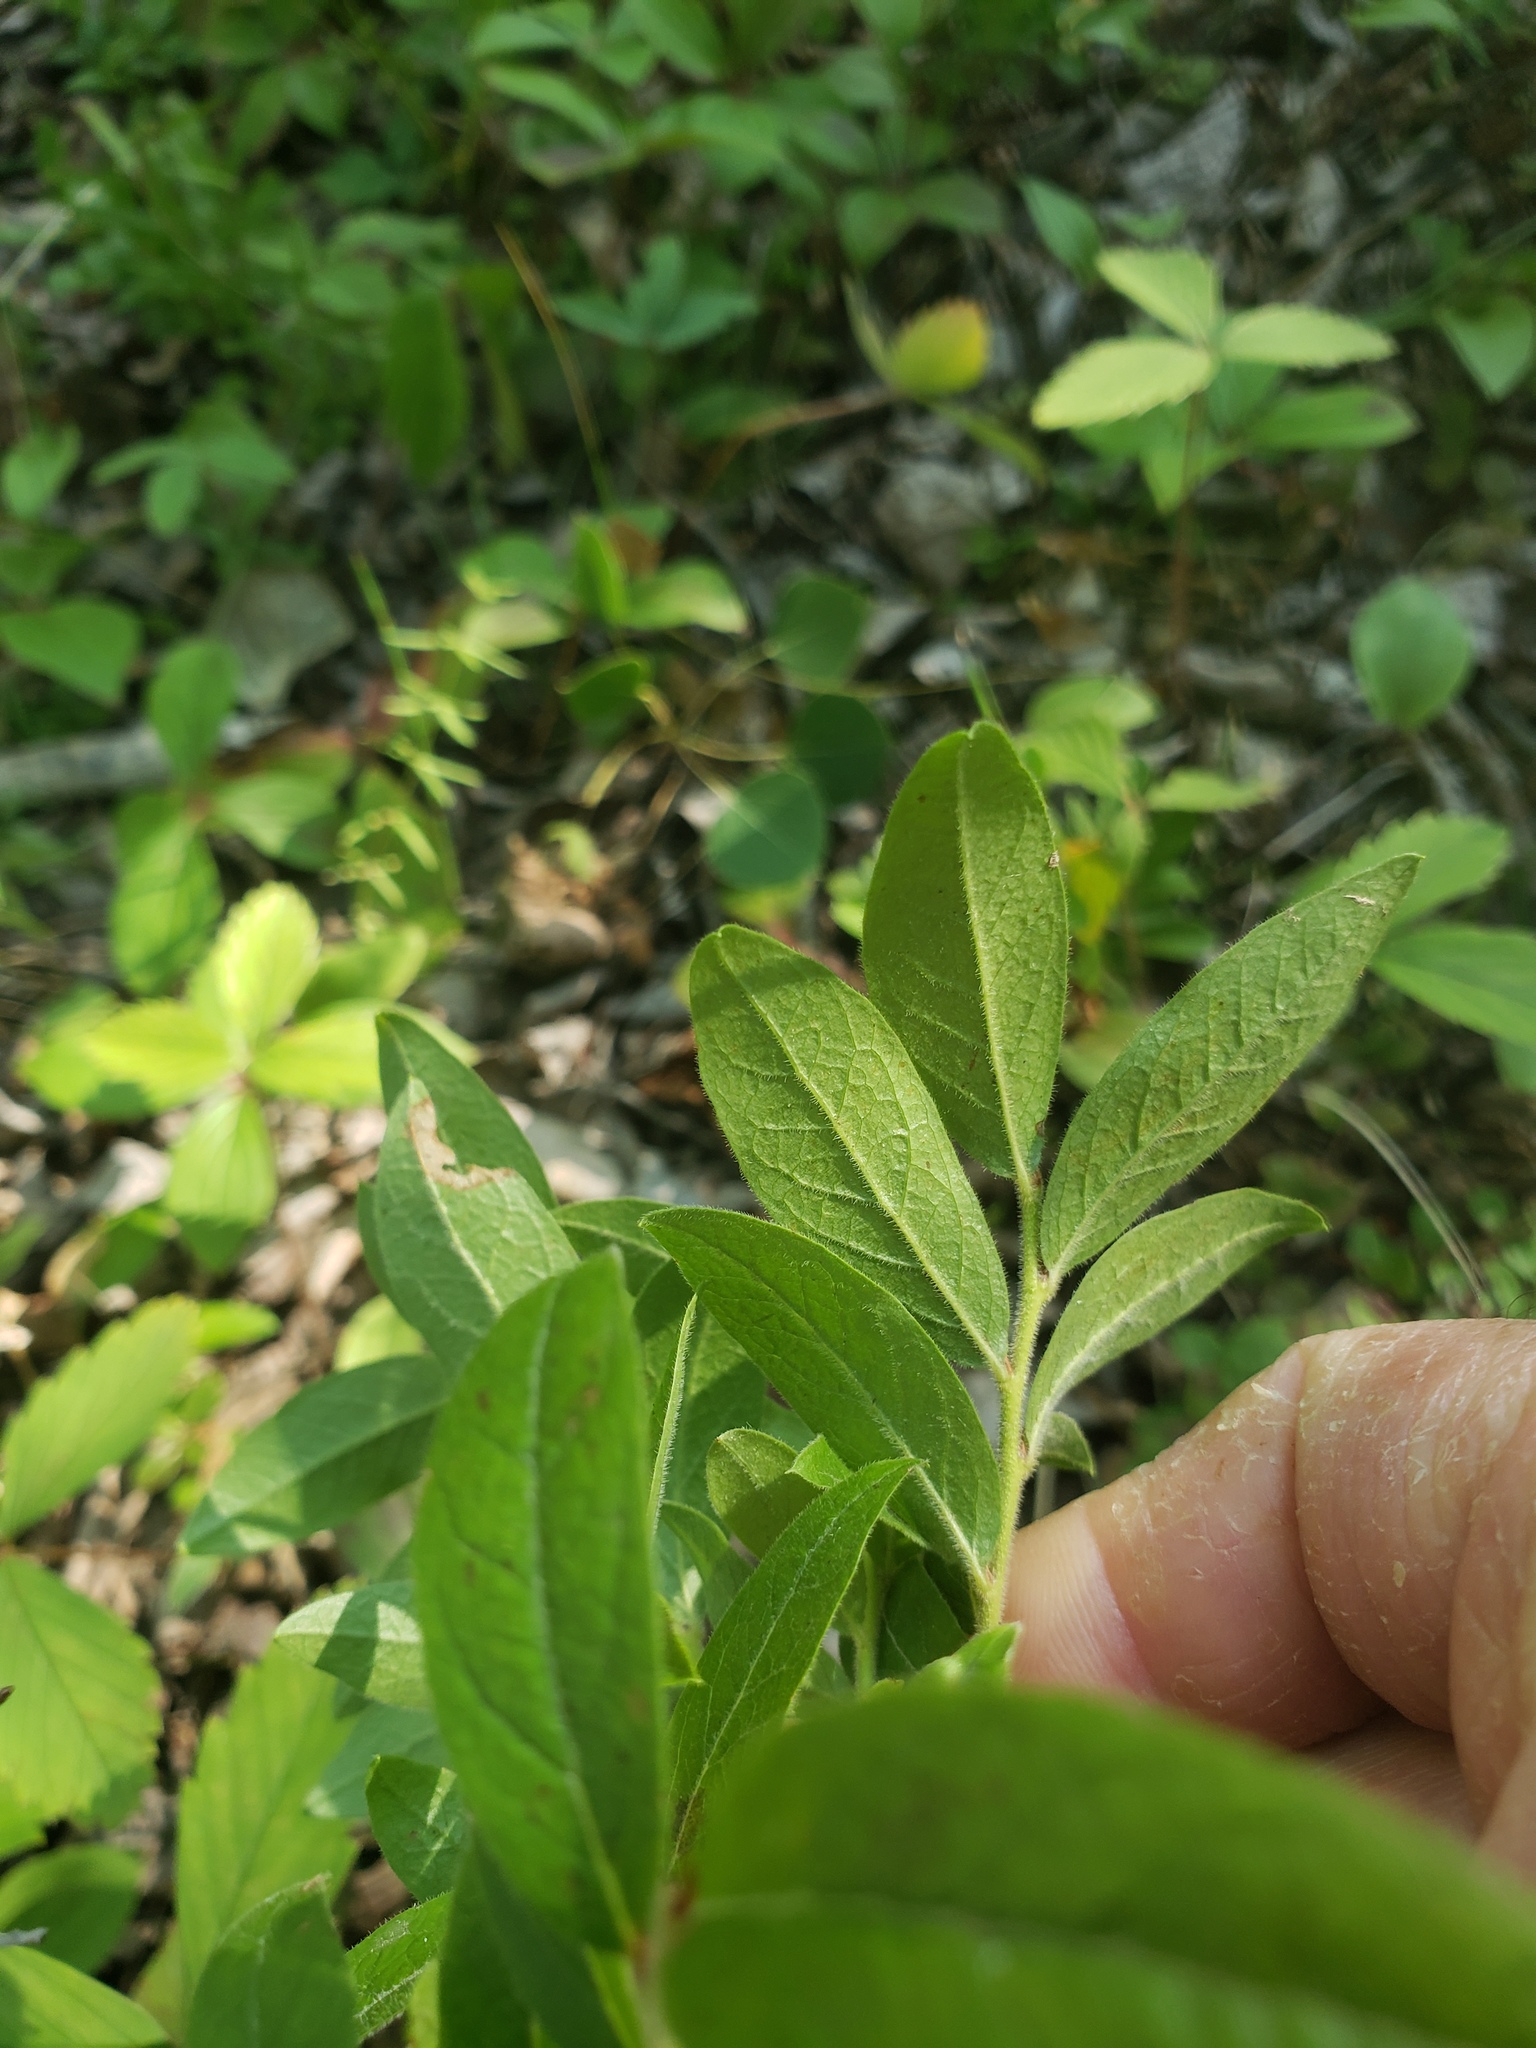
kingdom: Plantae
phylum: Tracheophyta
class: Magnoliopsida
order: Ericales
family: Ericaceae
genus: Vaccinium
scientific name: Vaccinium myrtilloides
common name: Canada blueberry
